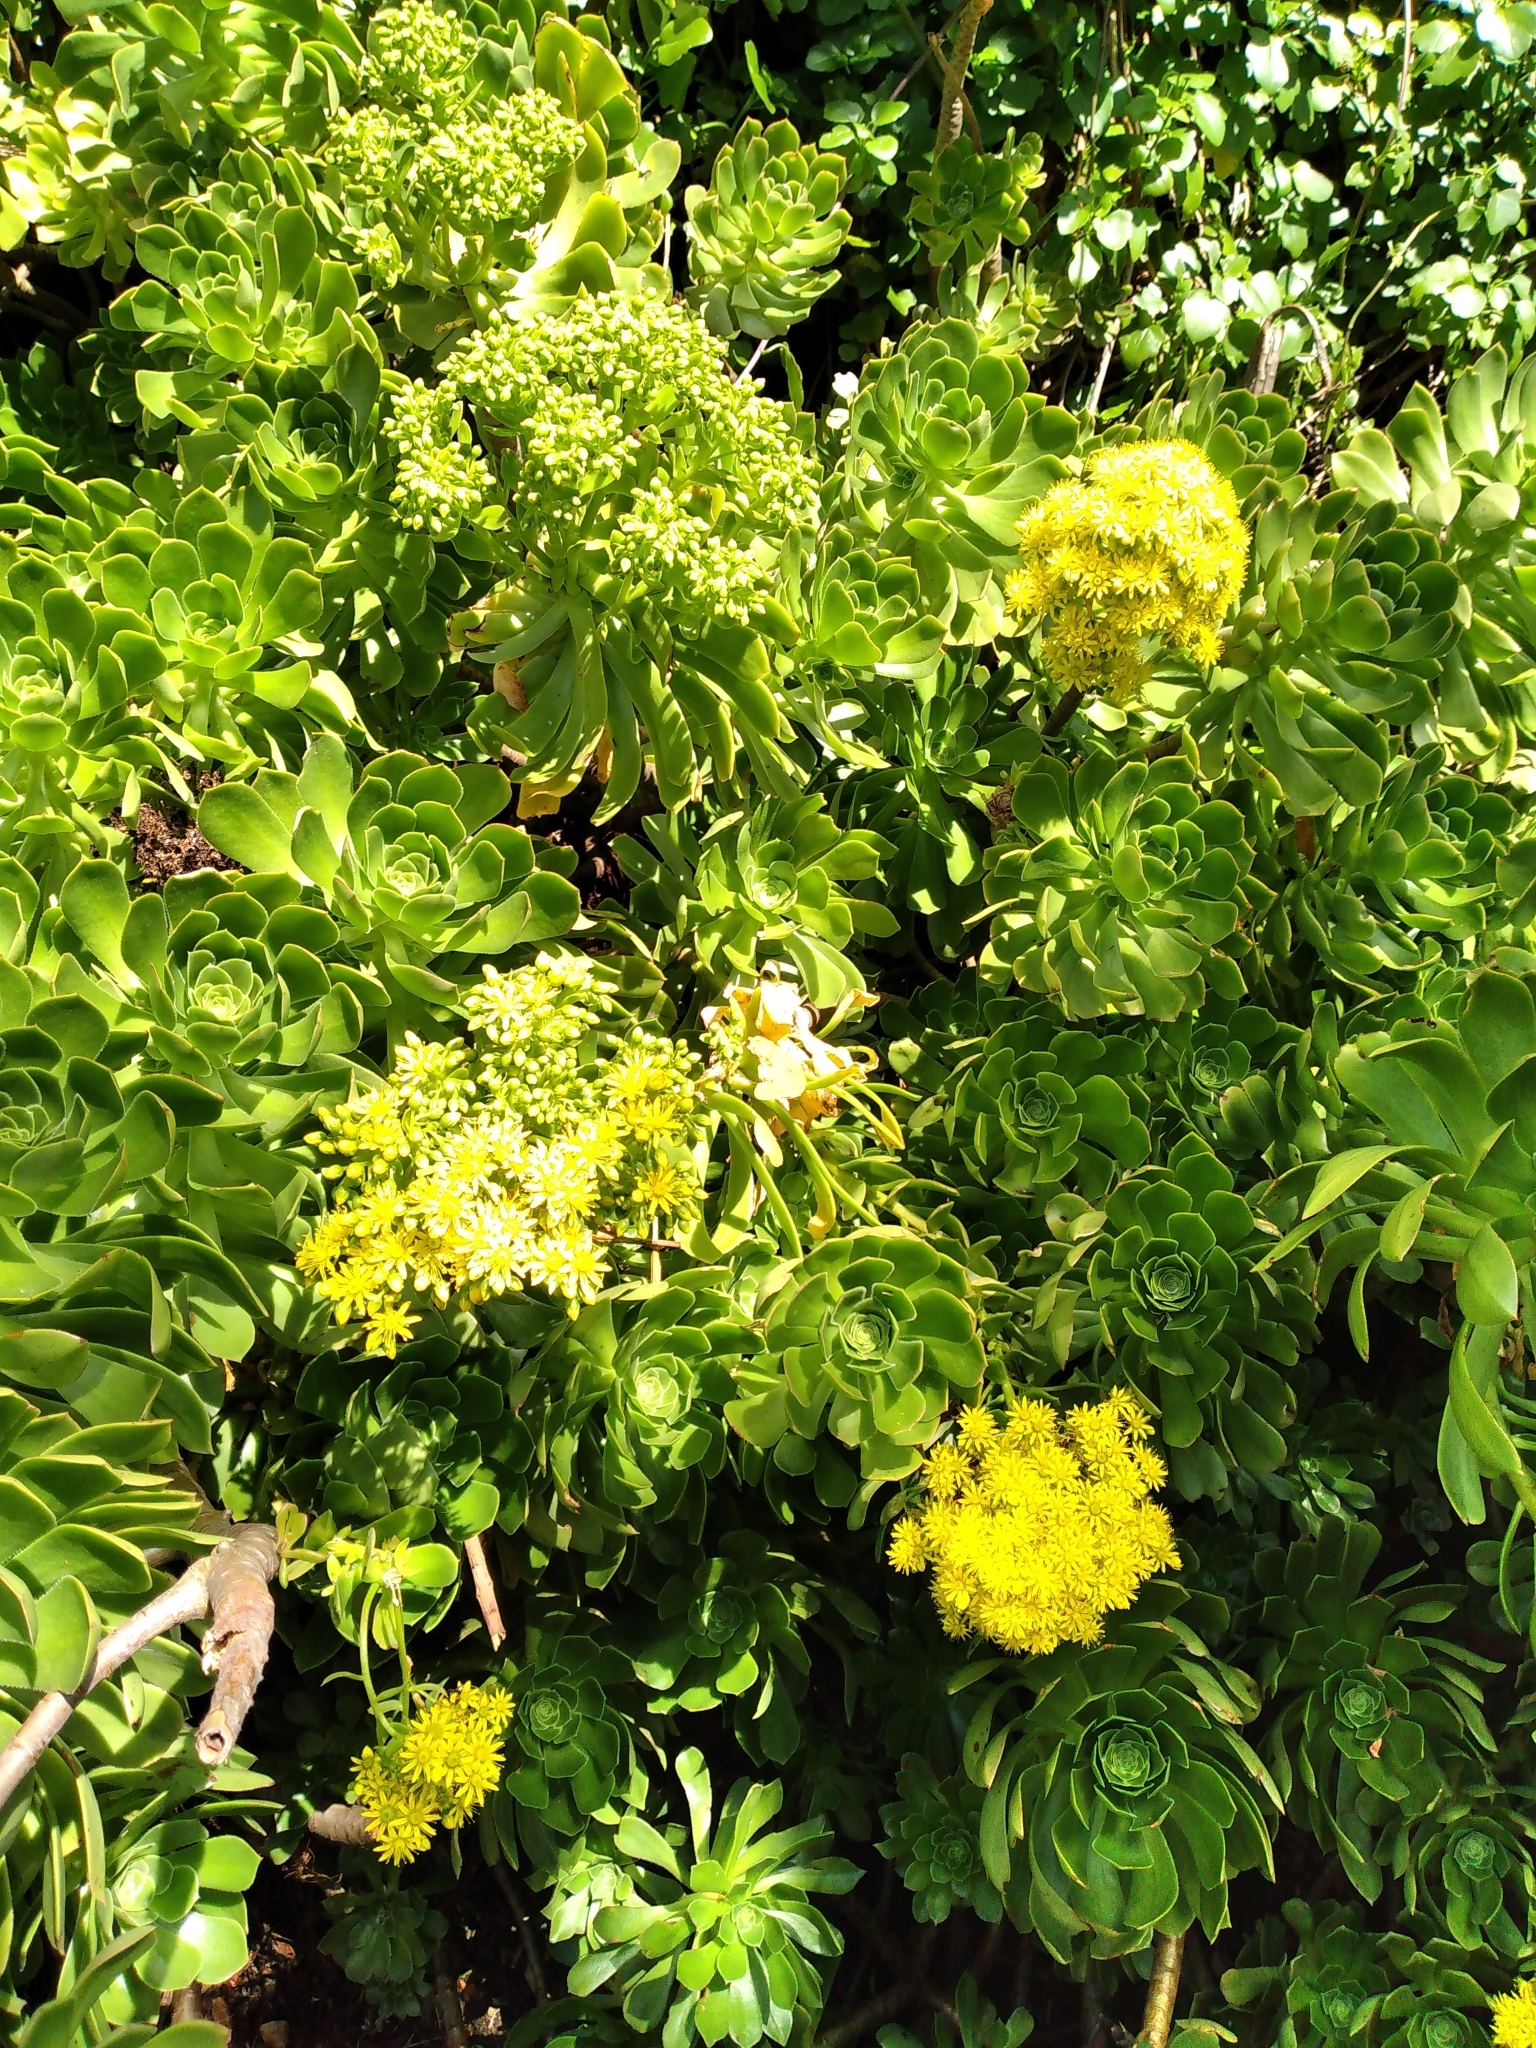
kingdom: Plantae
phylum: Tracheophyta
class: Magnoliopsida
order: Saxifragales
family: Crassulaceae
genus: Aeonium
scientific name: Aeonium arboreum
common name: Tree aeonium
